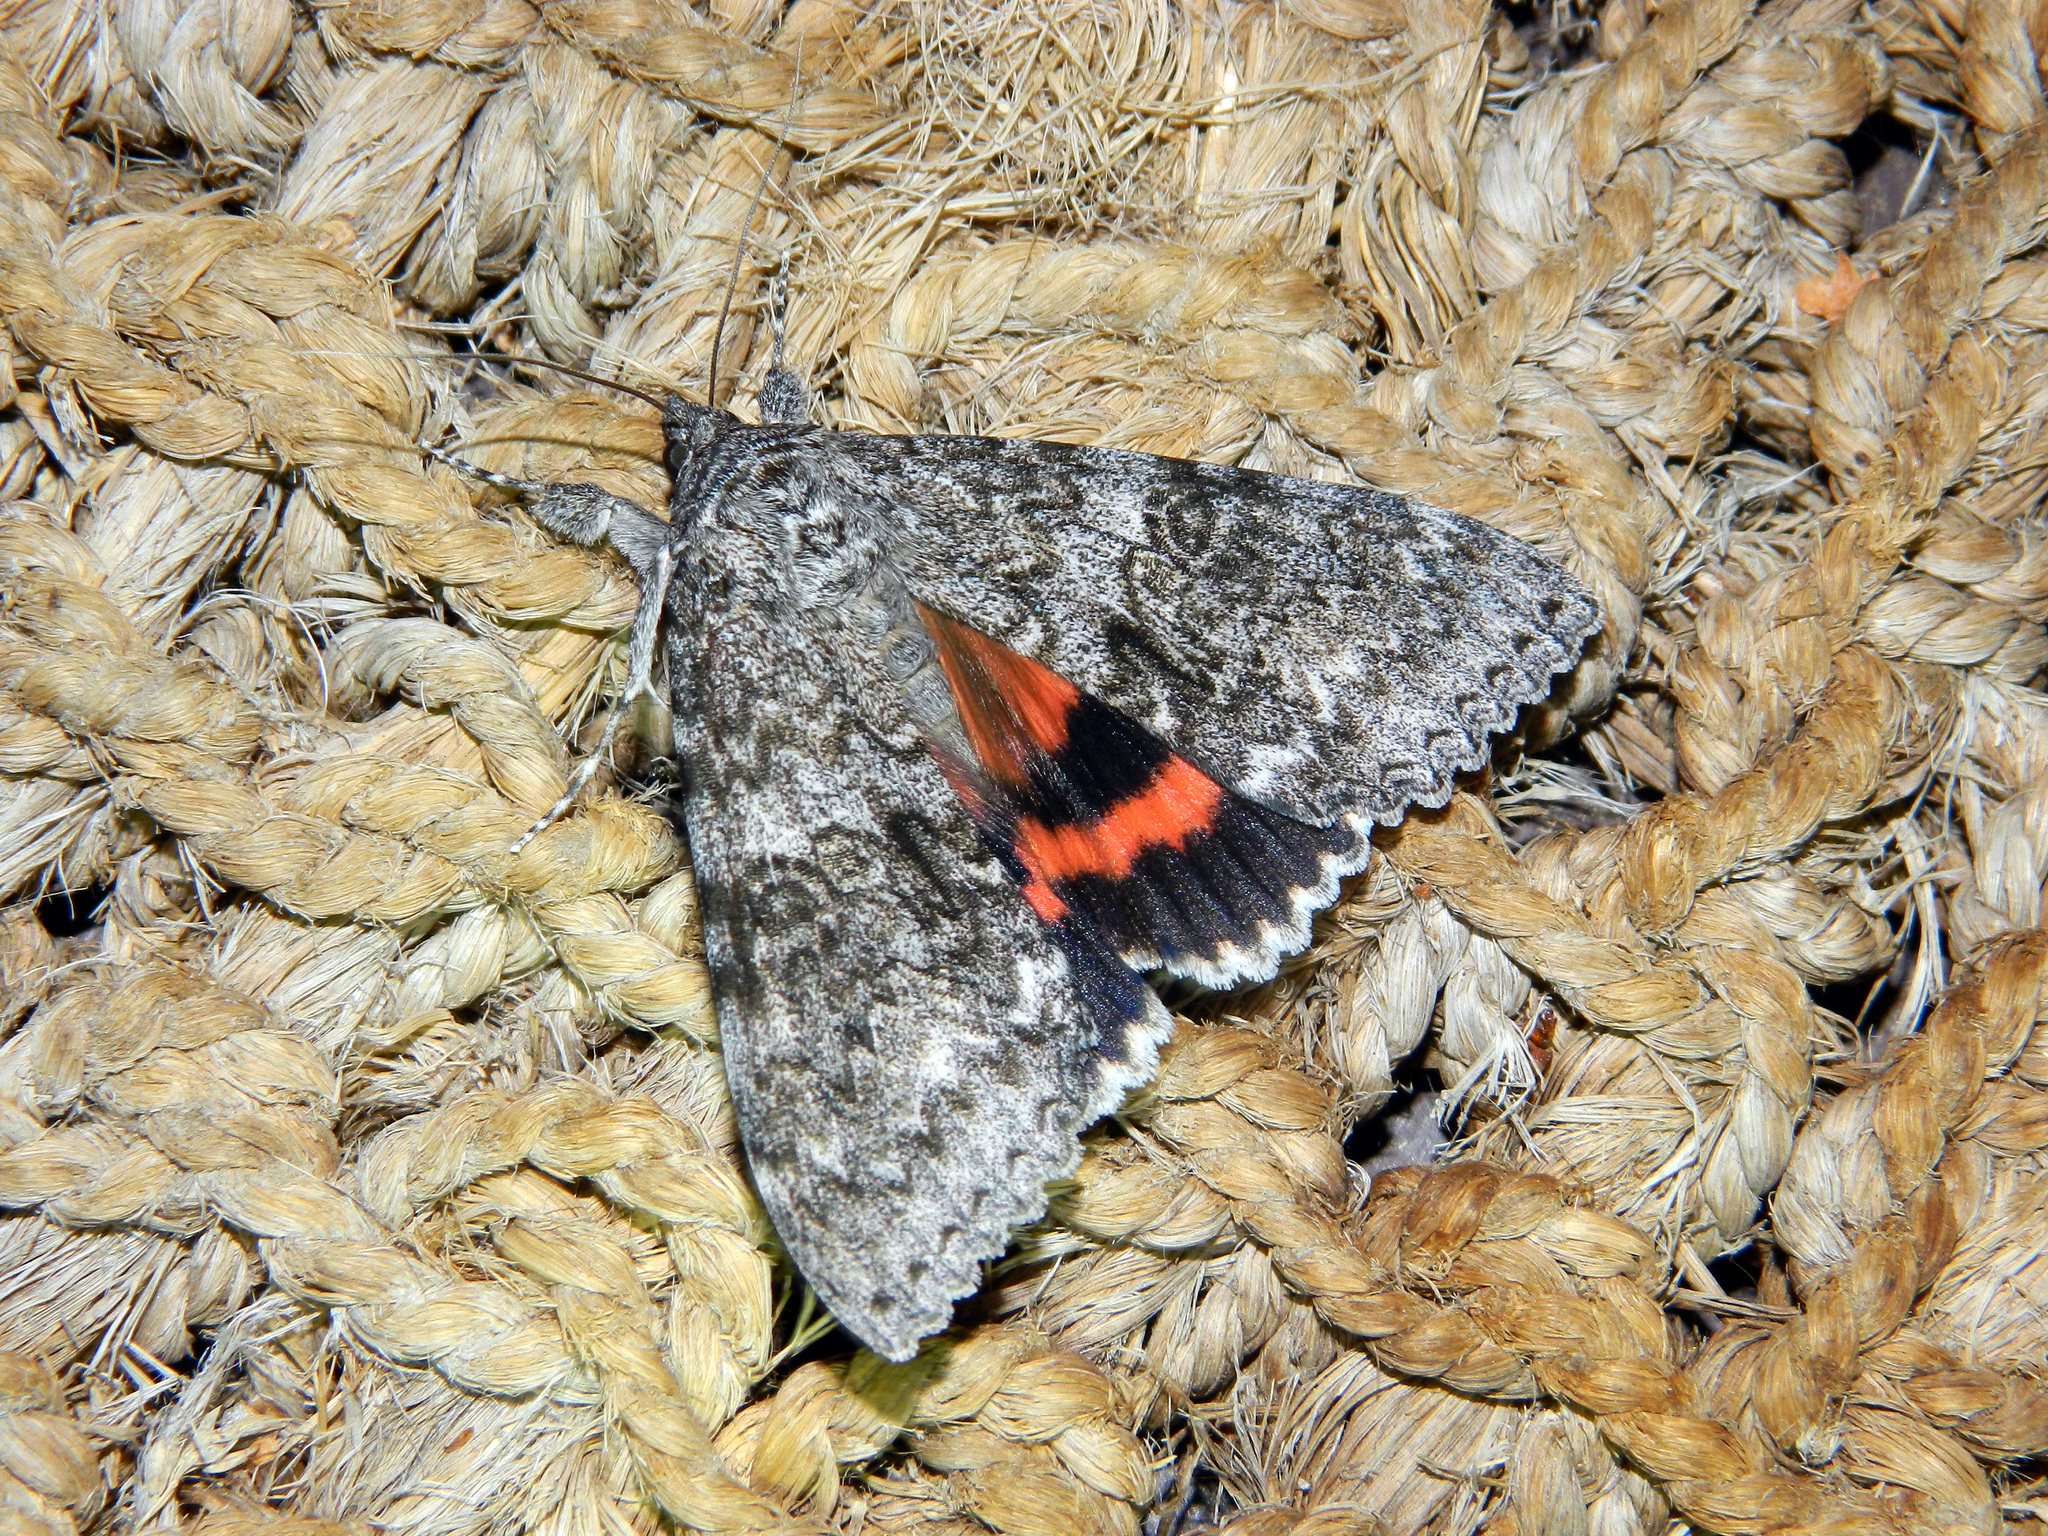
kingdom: Animalia
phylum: Arthropoda
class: Insecta
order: Lepidoptera
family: Erebidae
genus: Catocala
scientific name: Catocala unijuga
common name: Once-married underwing
